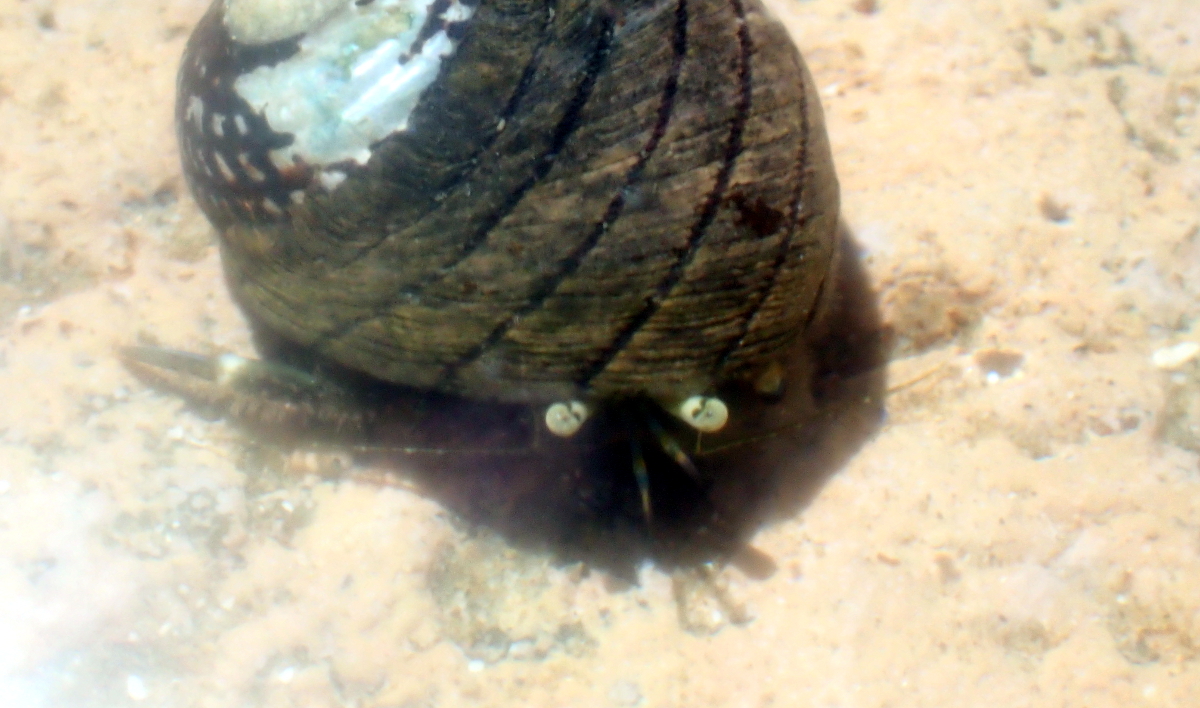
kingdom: Animalia
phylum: Arthropoda
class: Malacostraca
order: Decapoda
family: Paguridae
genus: Pagurus
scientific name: Pagurus novizealandiae
